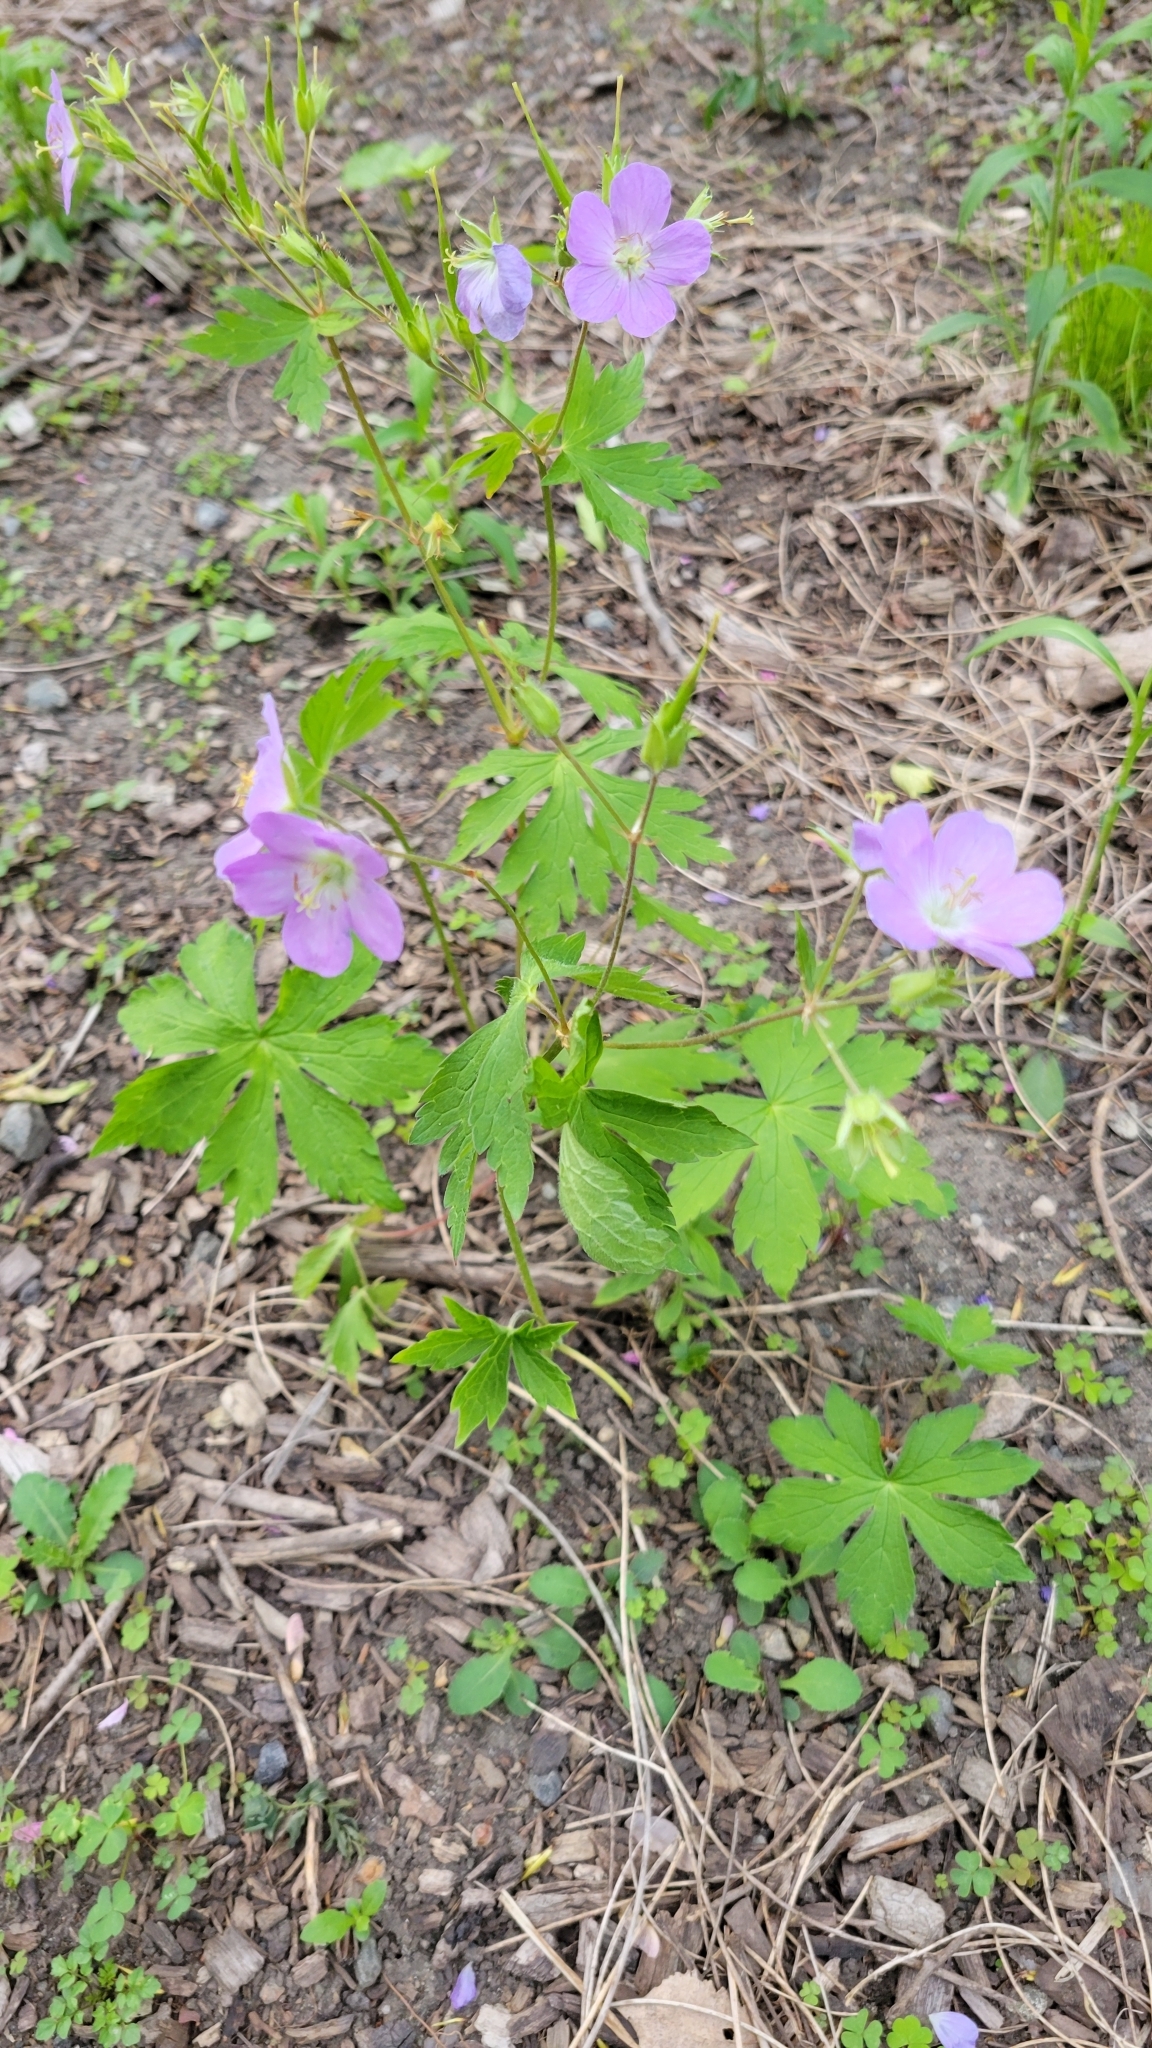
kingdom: Plantae
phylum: Tracheophyta
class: Magnoliopsida
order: Geraniales
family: Geraniaceae
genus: Geranium
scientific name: Geranium maculatum
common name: Spotted geranium
